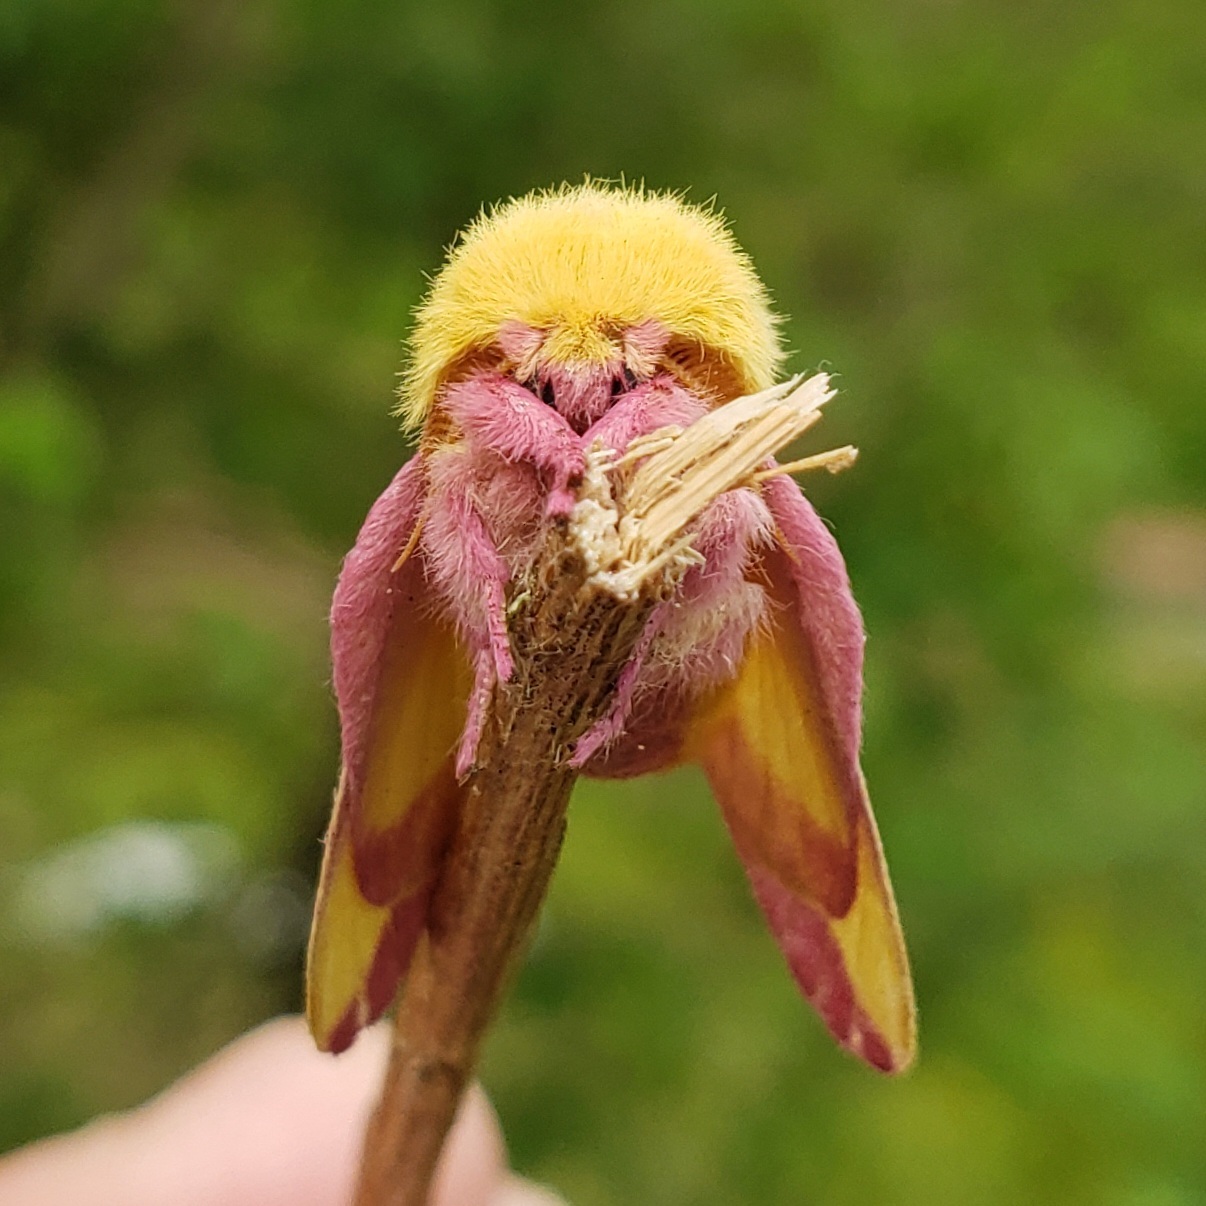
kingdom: Animalia
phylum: Arthropoda
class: Insecta
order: Lepidoptera
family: Saturniidae
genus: Dryocampa
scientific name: Dryocampa rubicunda
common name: Rosy maple moth
